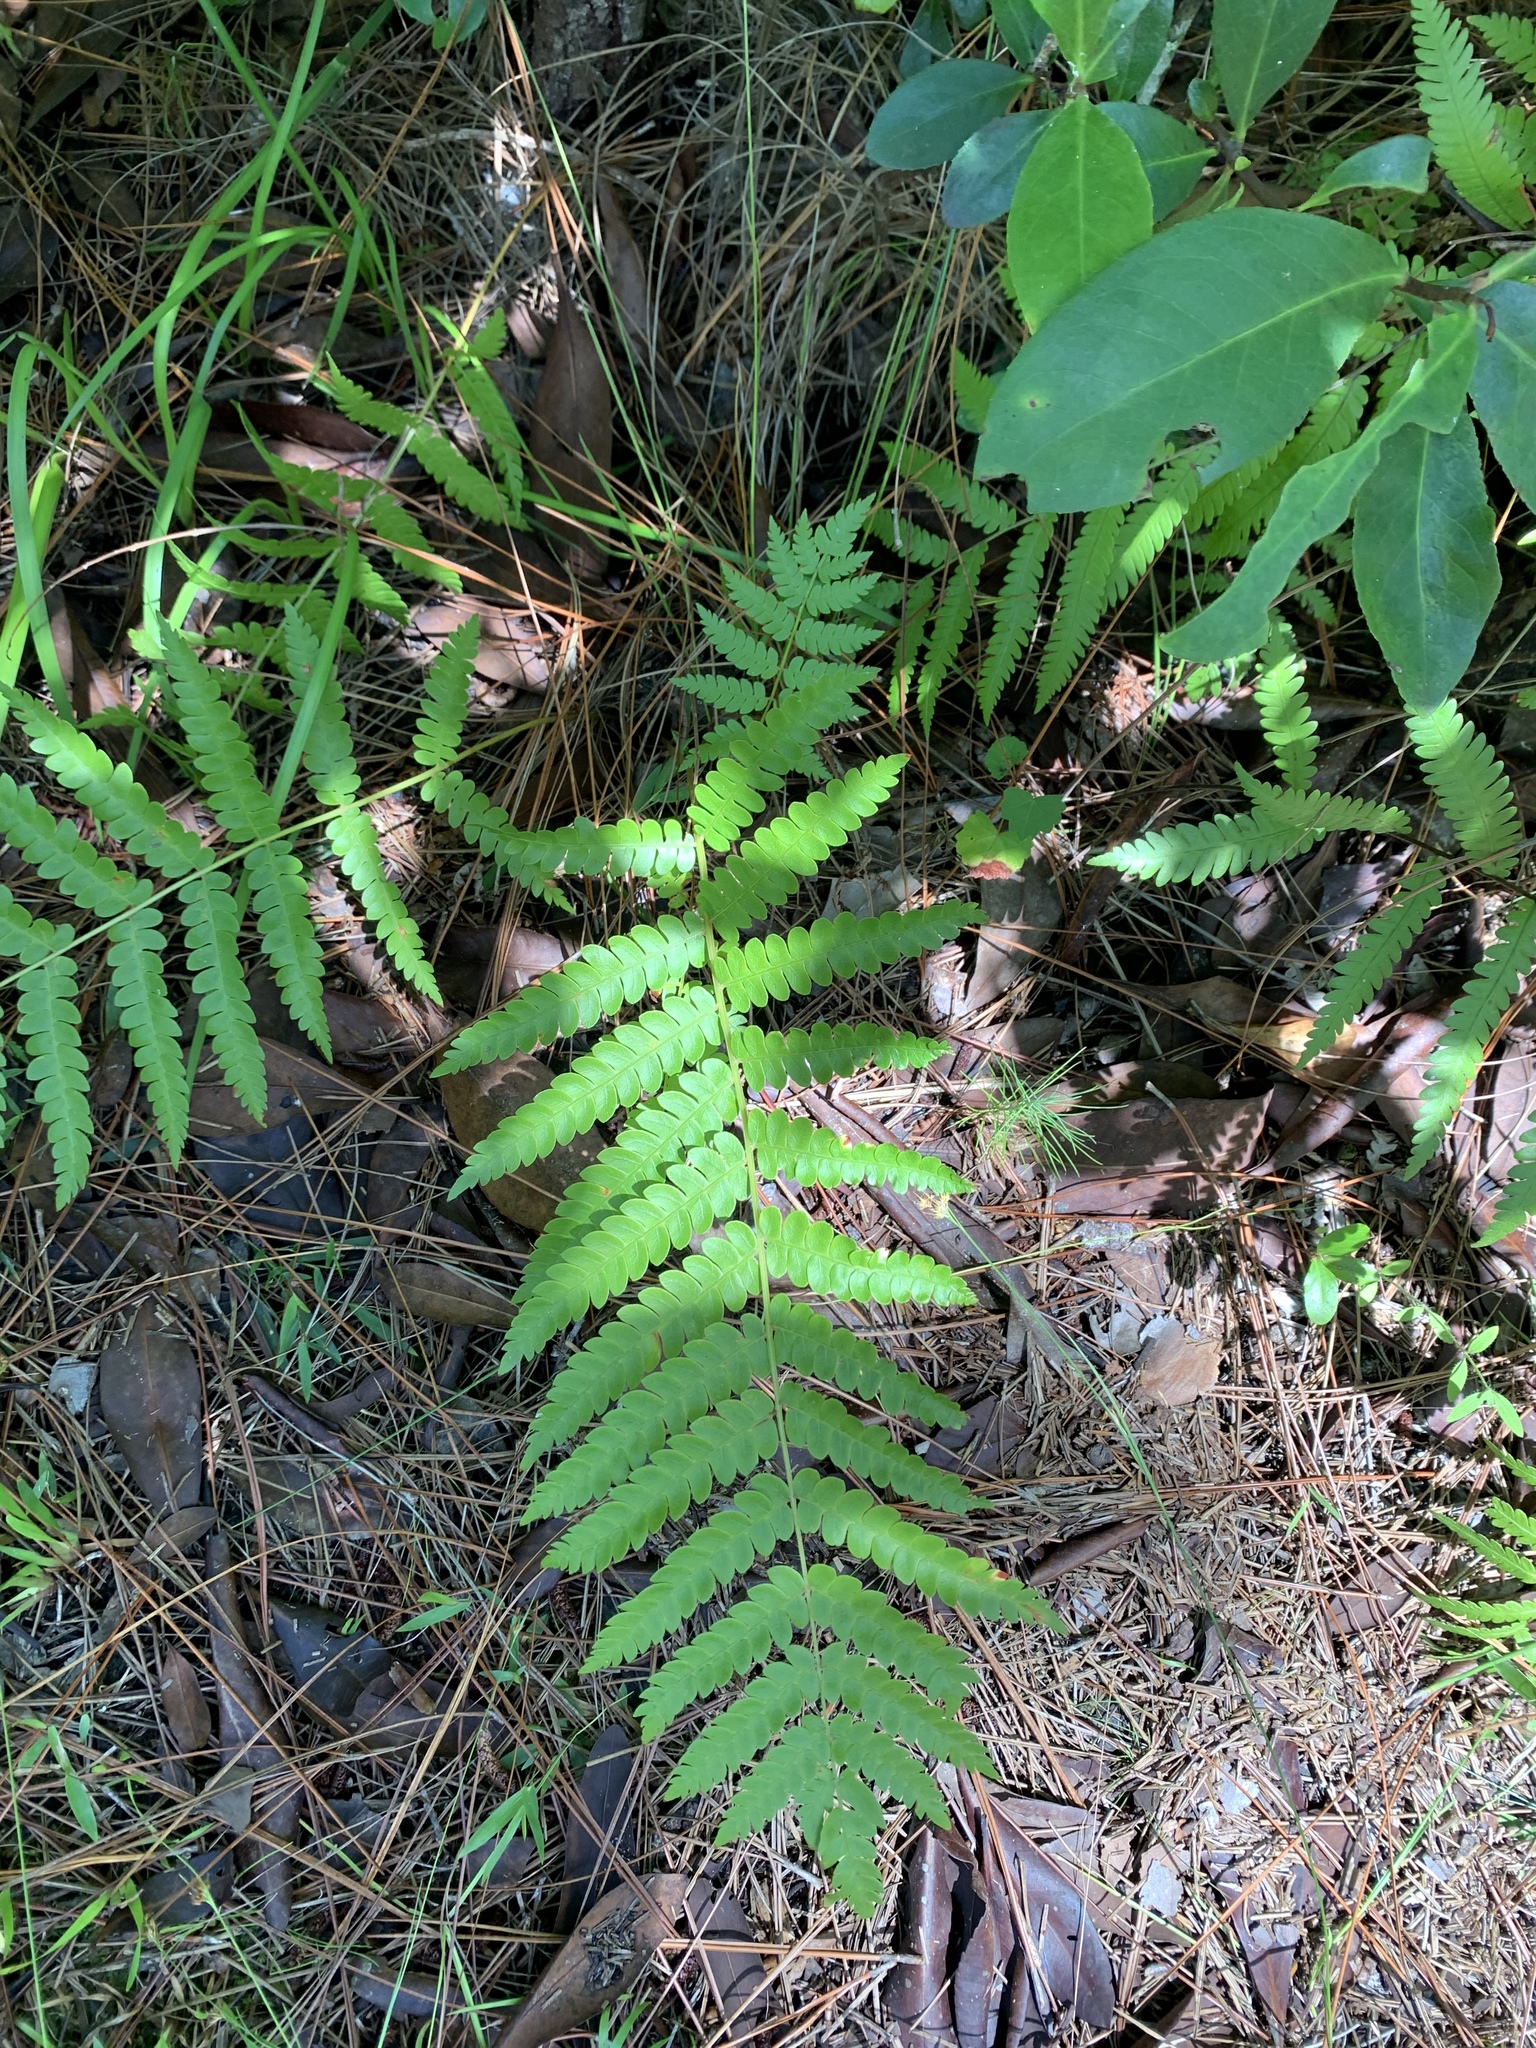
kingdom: Plantae
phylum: Tracheophyta
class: Polypodiopsida
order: Osmundales
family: Osmundaceae
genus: Osmundastrum
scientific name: Osmundastrum cinnamomeum
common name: Cinnamon fern
